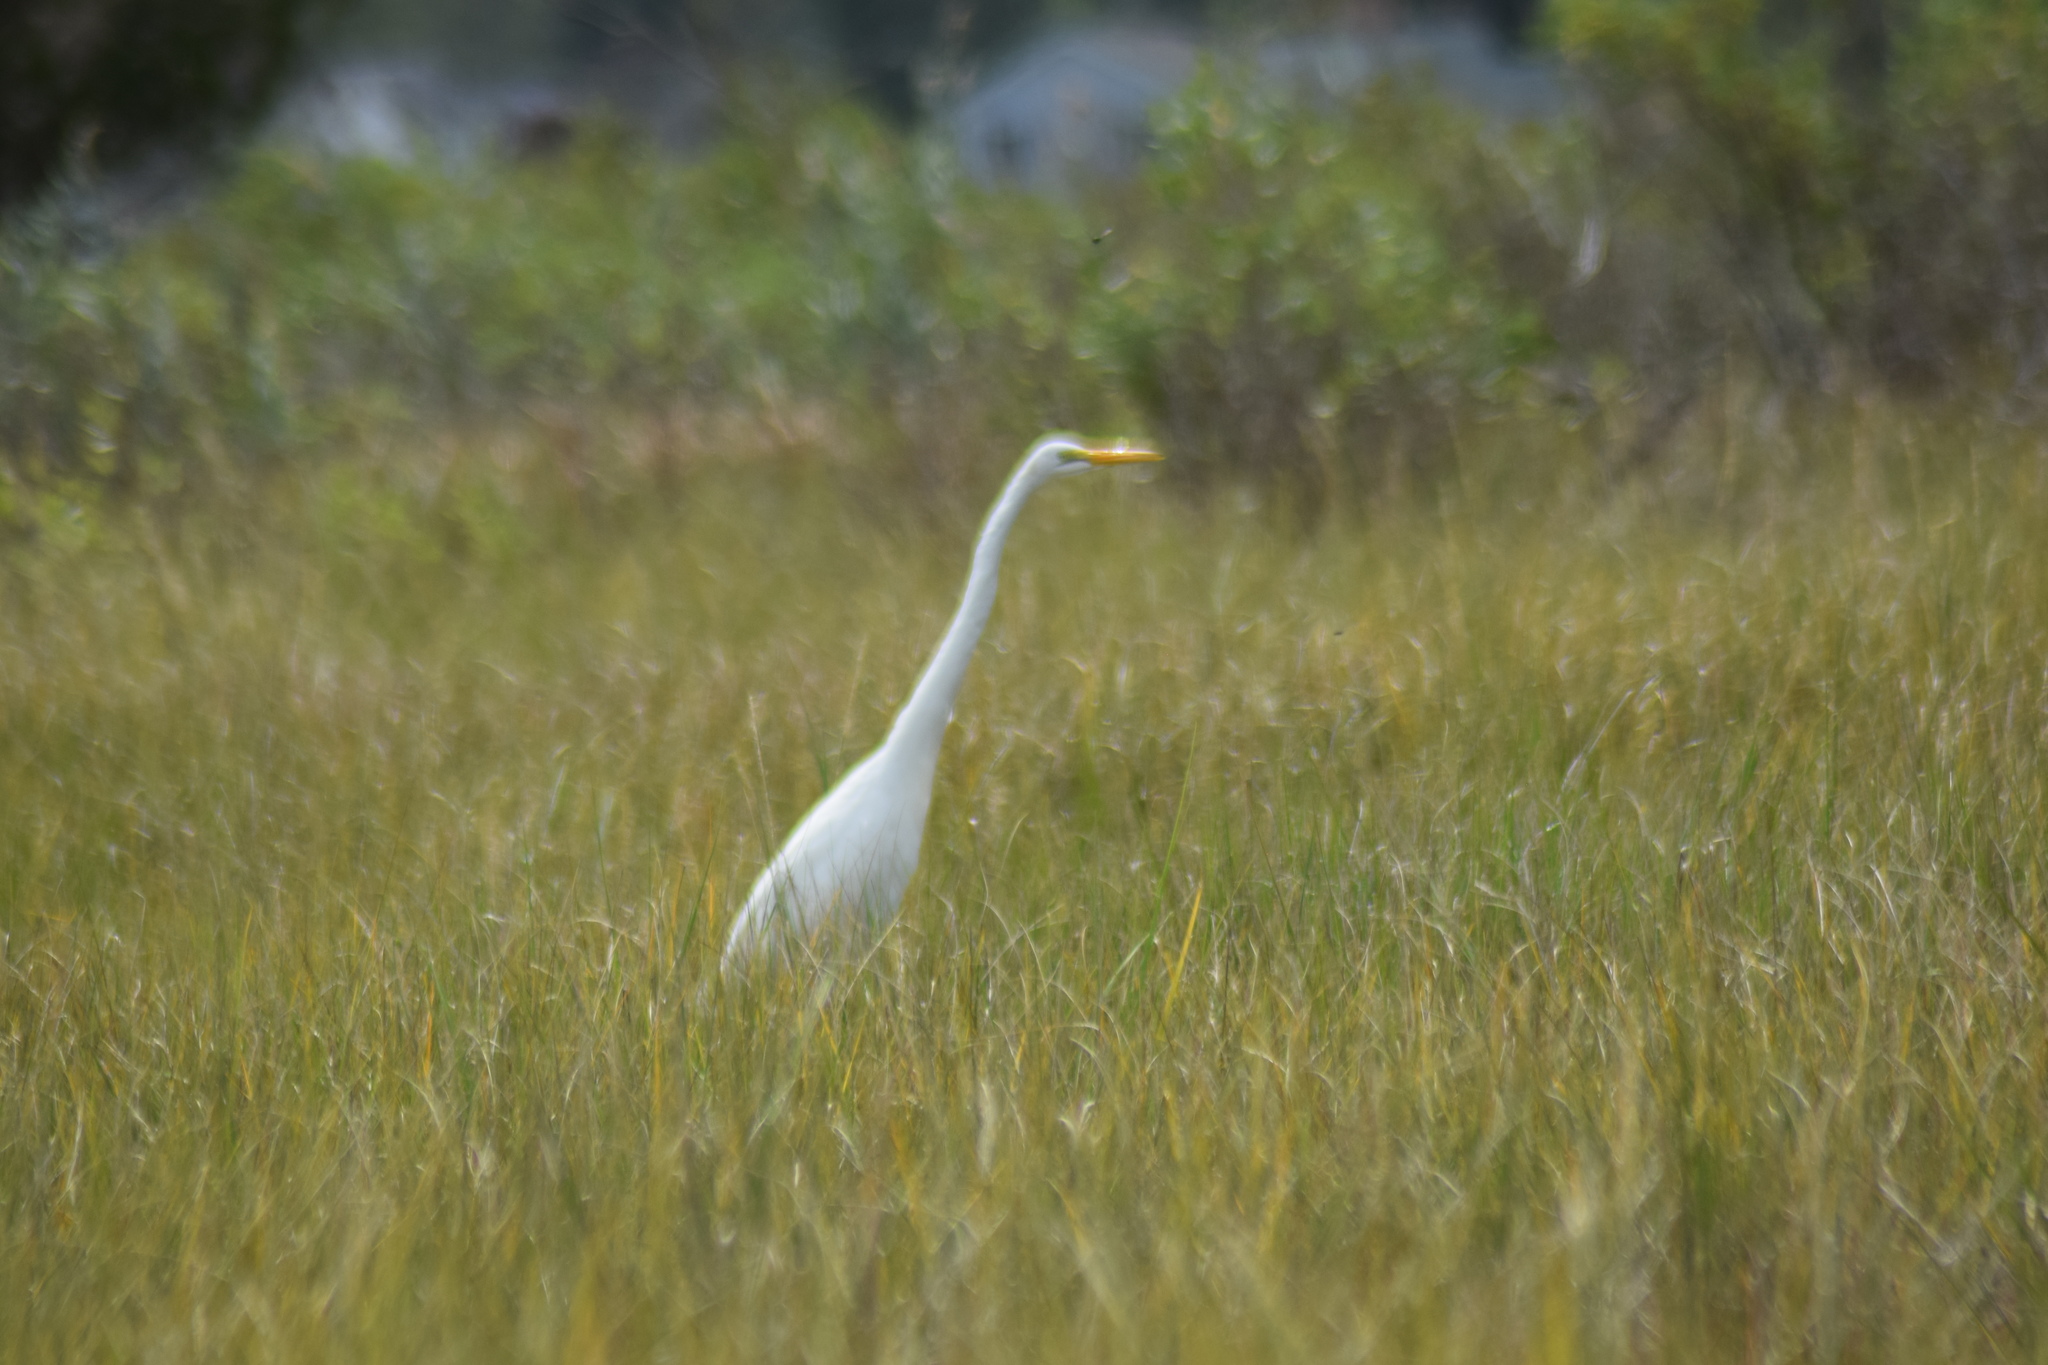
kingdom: Animalia
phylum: Chordata
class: Aves
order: Pelecaniformes
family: Ardeidae
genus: Ardea
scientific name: Ardea alba
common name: Great egret
